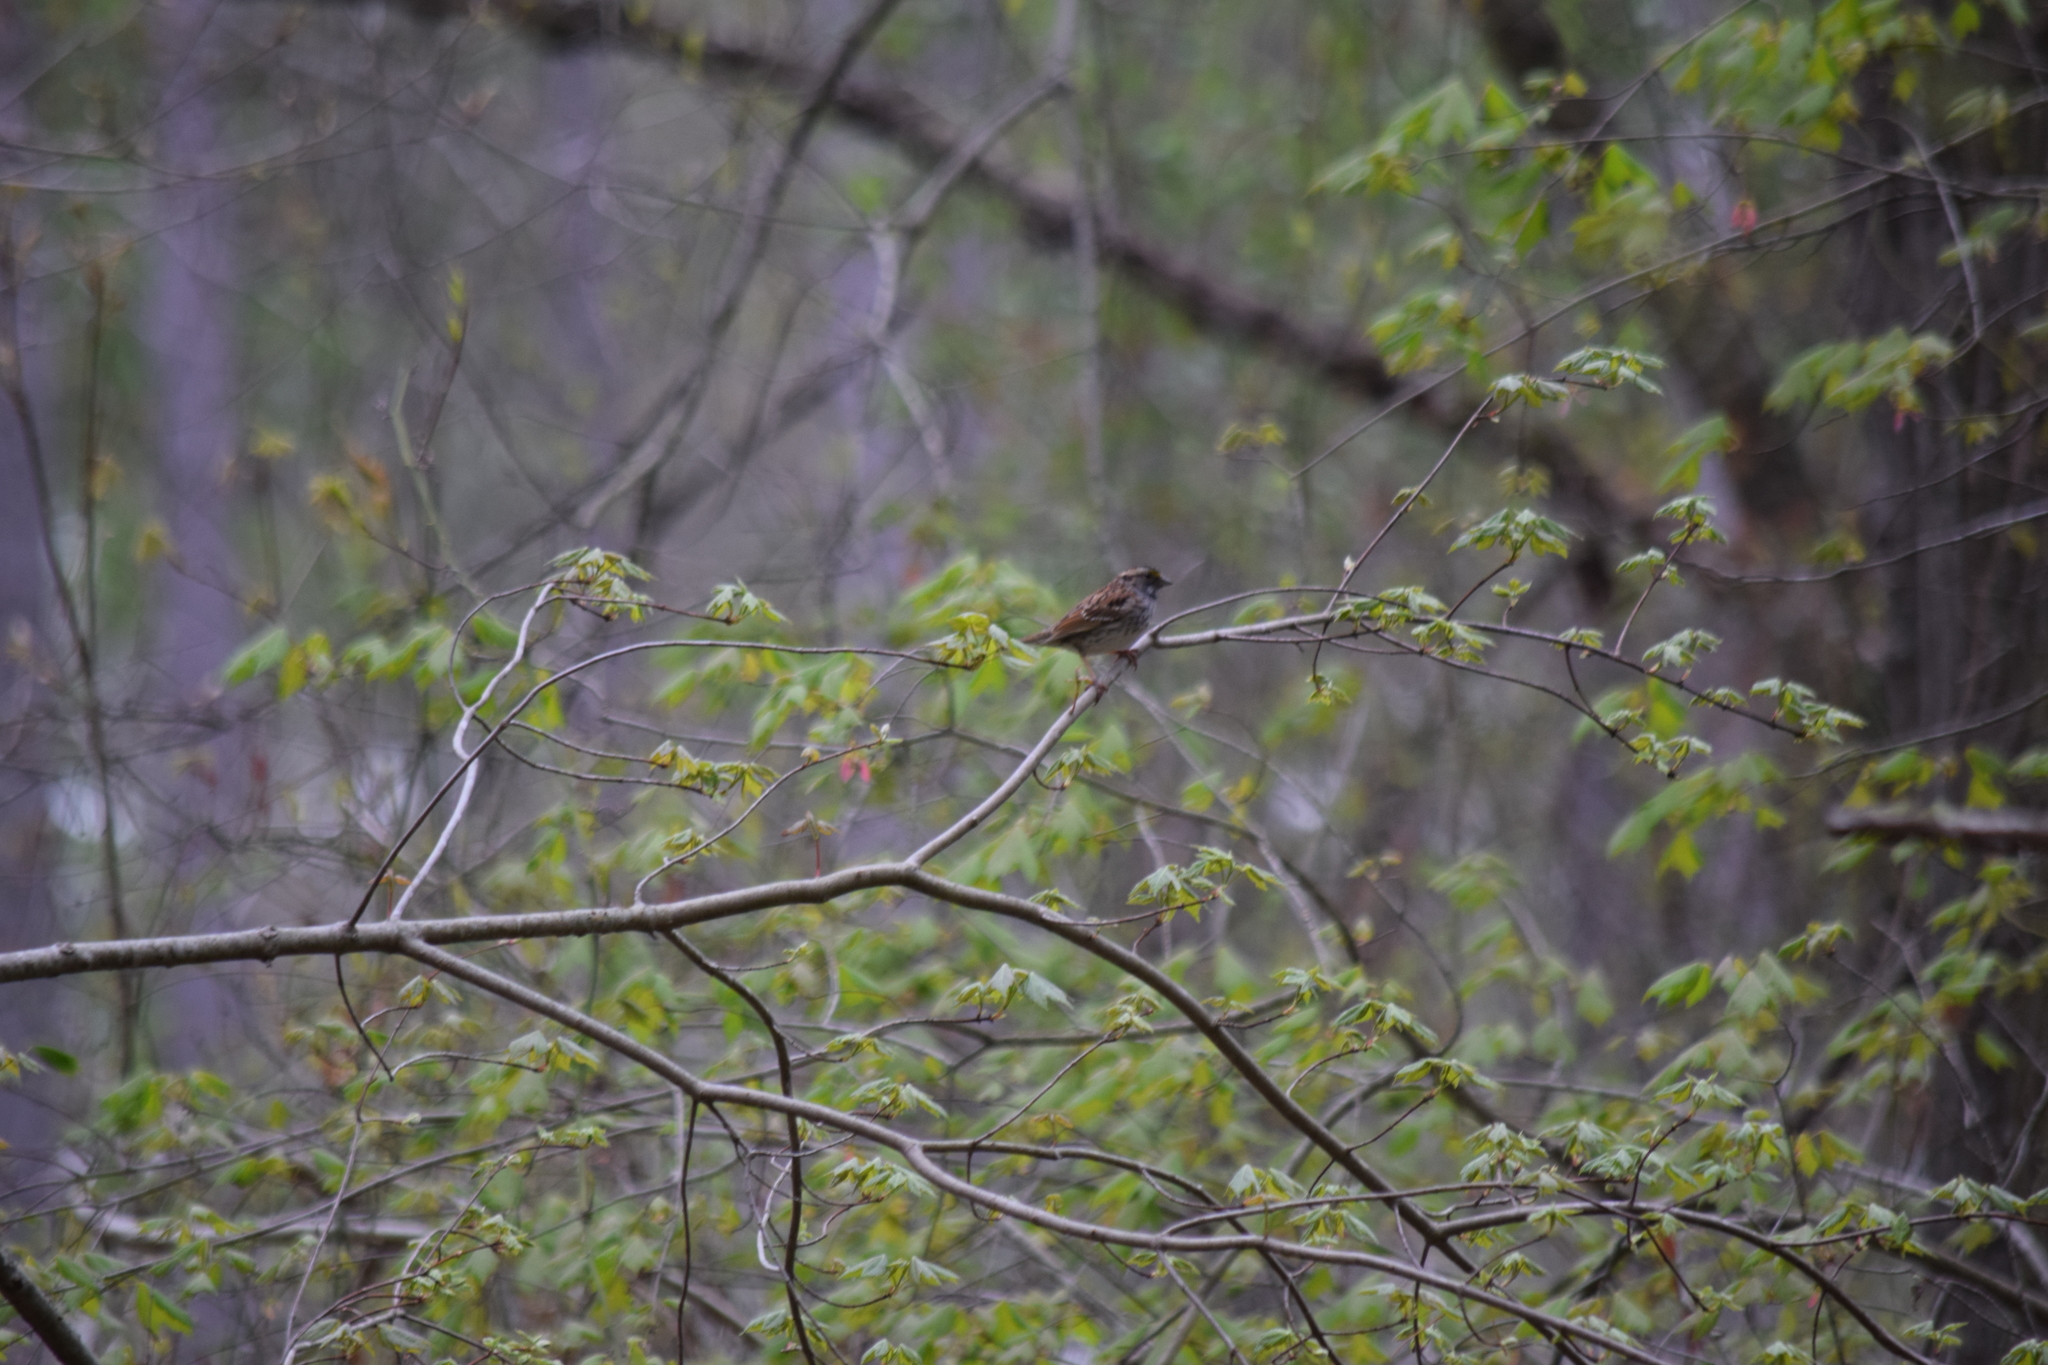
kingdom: Animalia
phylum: Chordata
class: Aves
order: Passeriformes
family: Passerellidae
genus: Zonotrichia
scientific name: Zonotrichia albicollis
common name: White-throated sparrow
